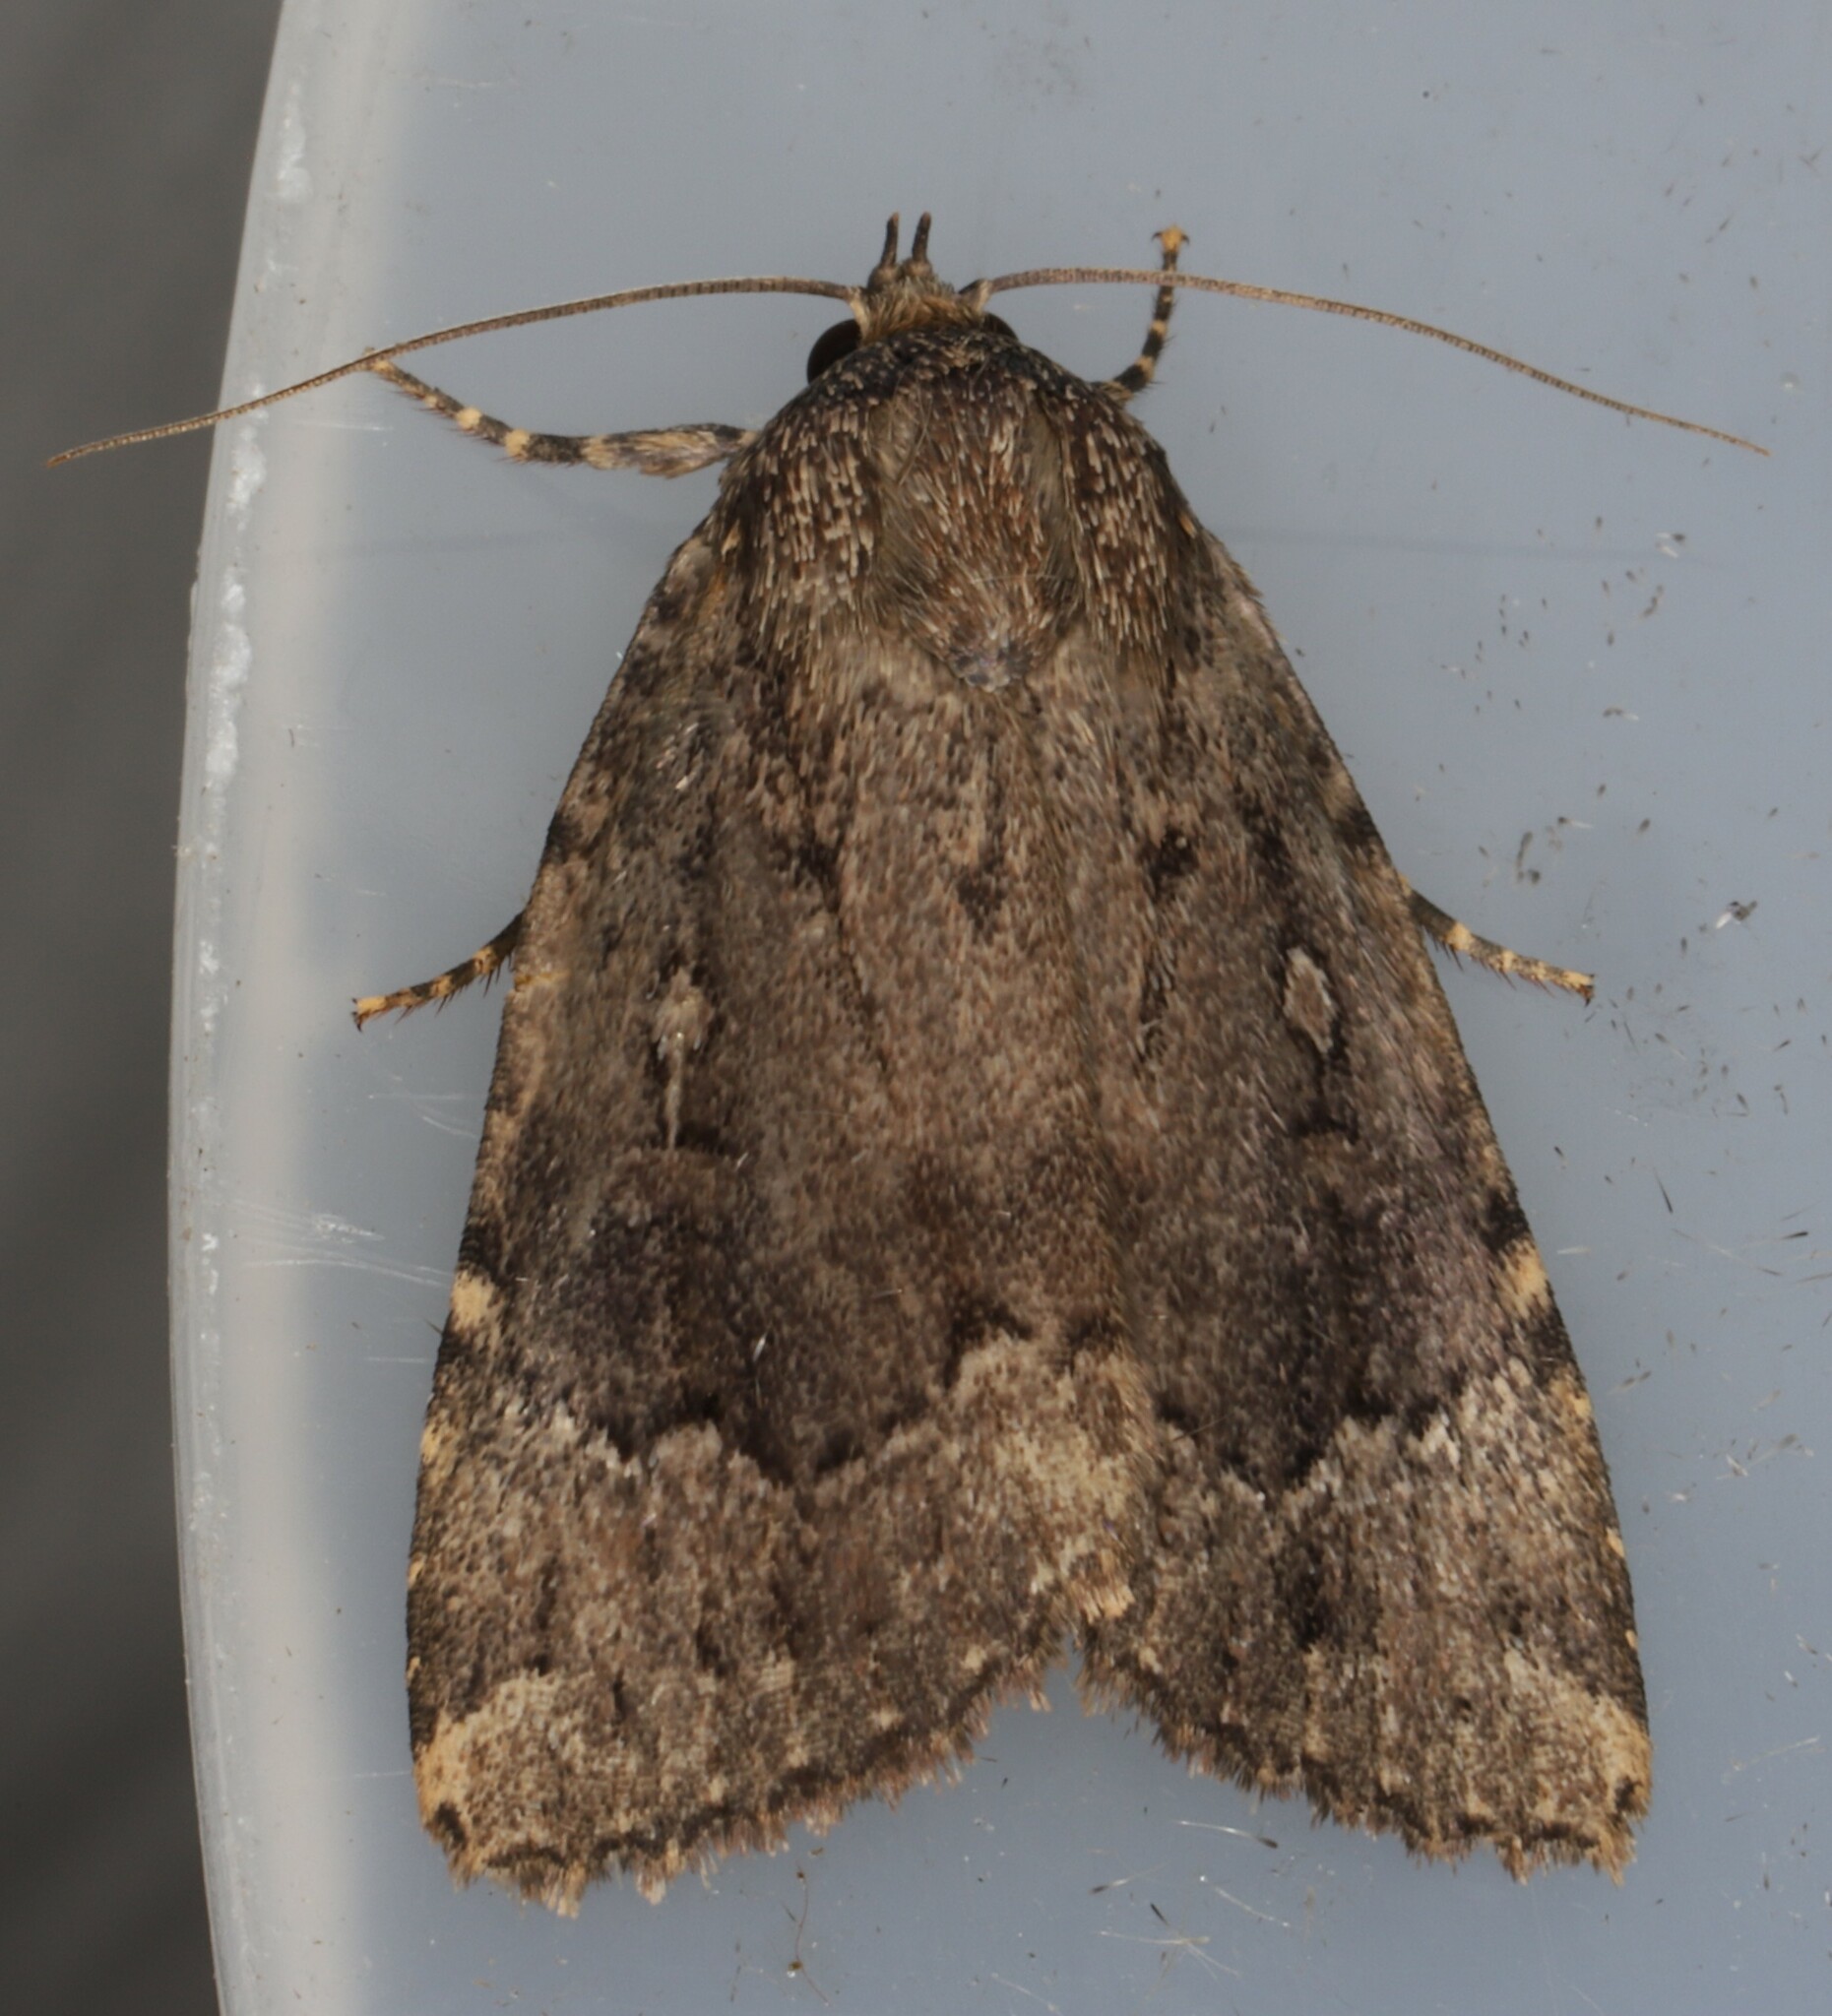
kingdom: Animalia
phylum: Arthropoda
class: Insecta
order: Lepidoptera
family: Noctuidae
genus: Amphipyra
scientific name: Amphipyra pyramidoides
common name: American copper underwing
